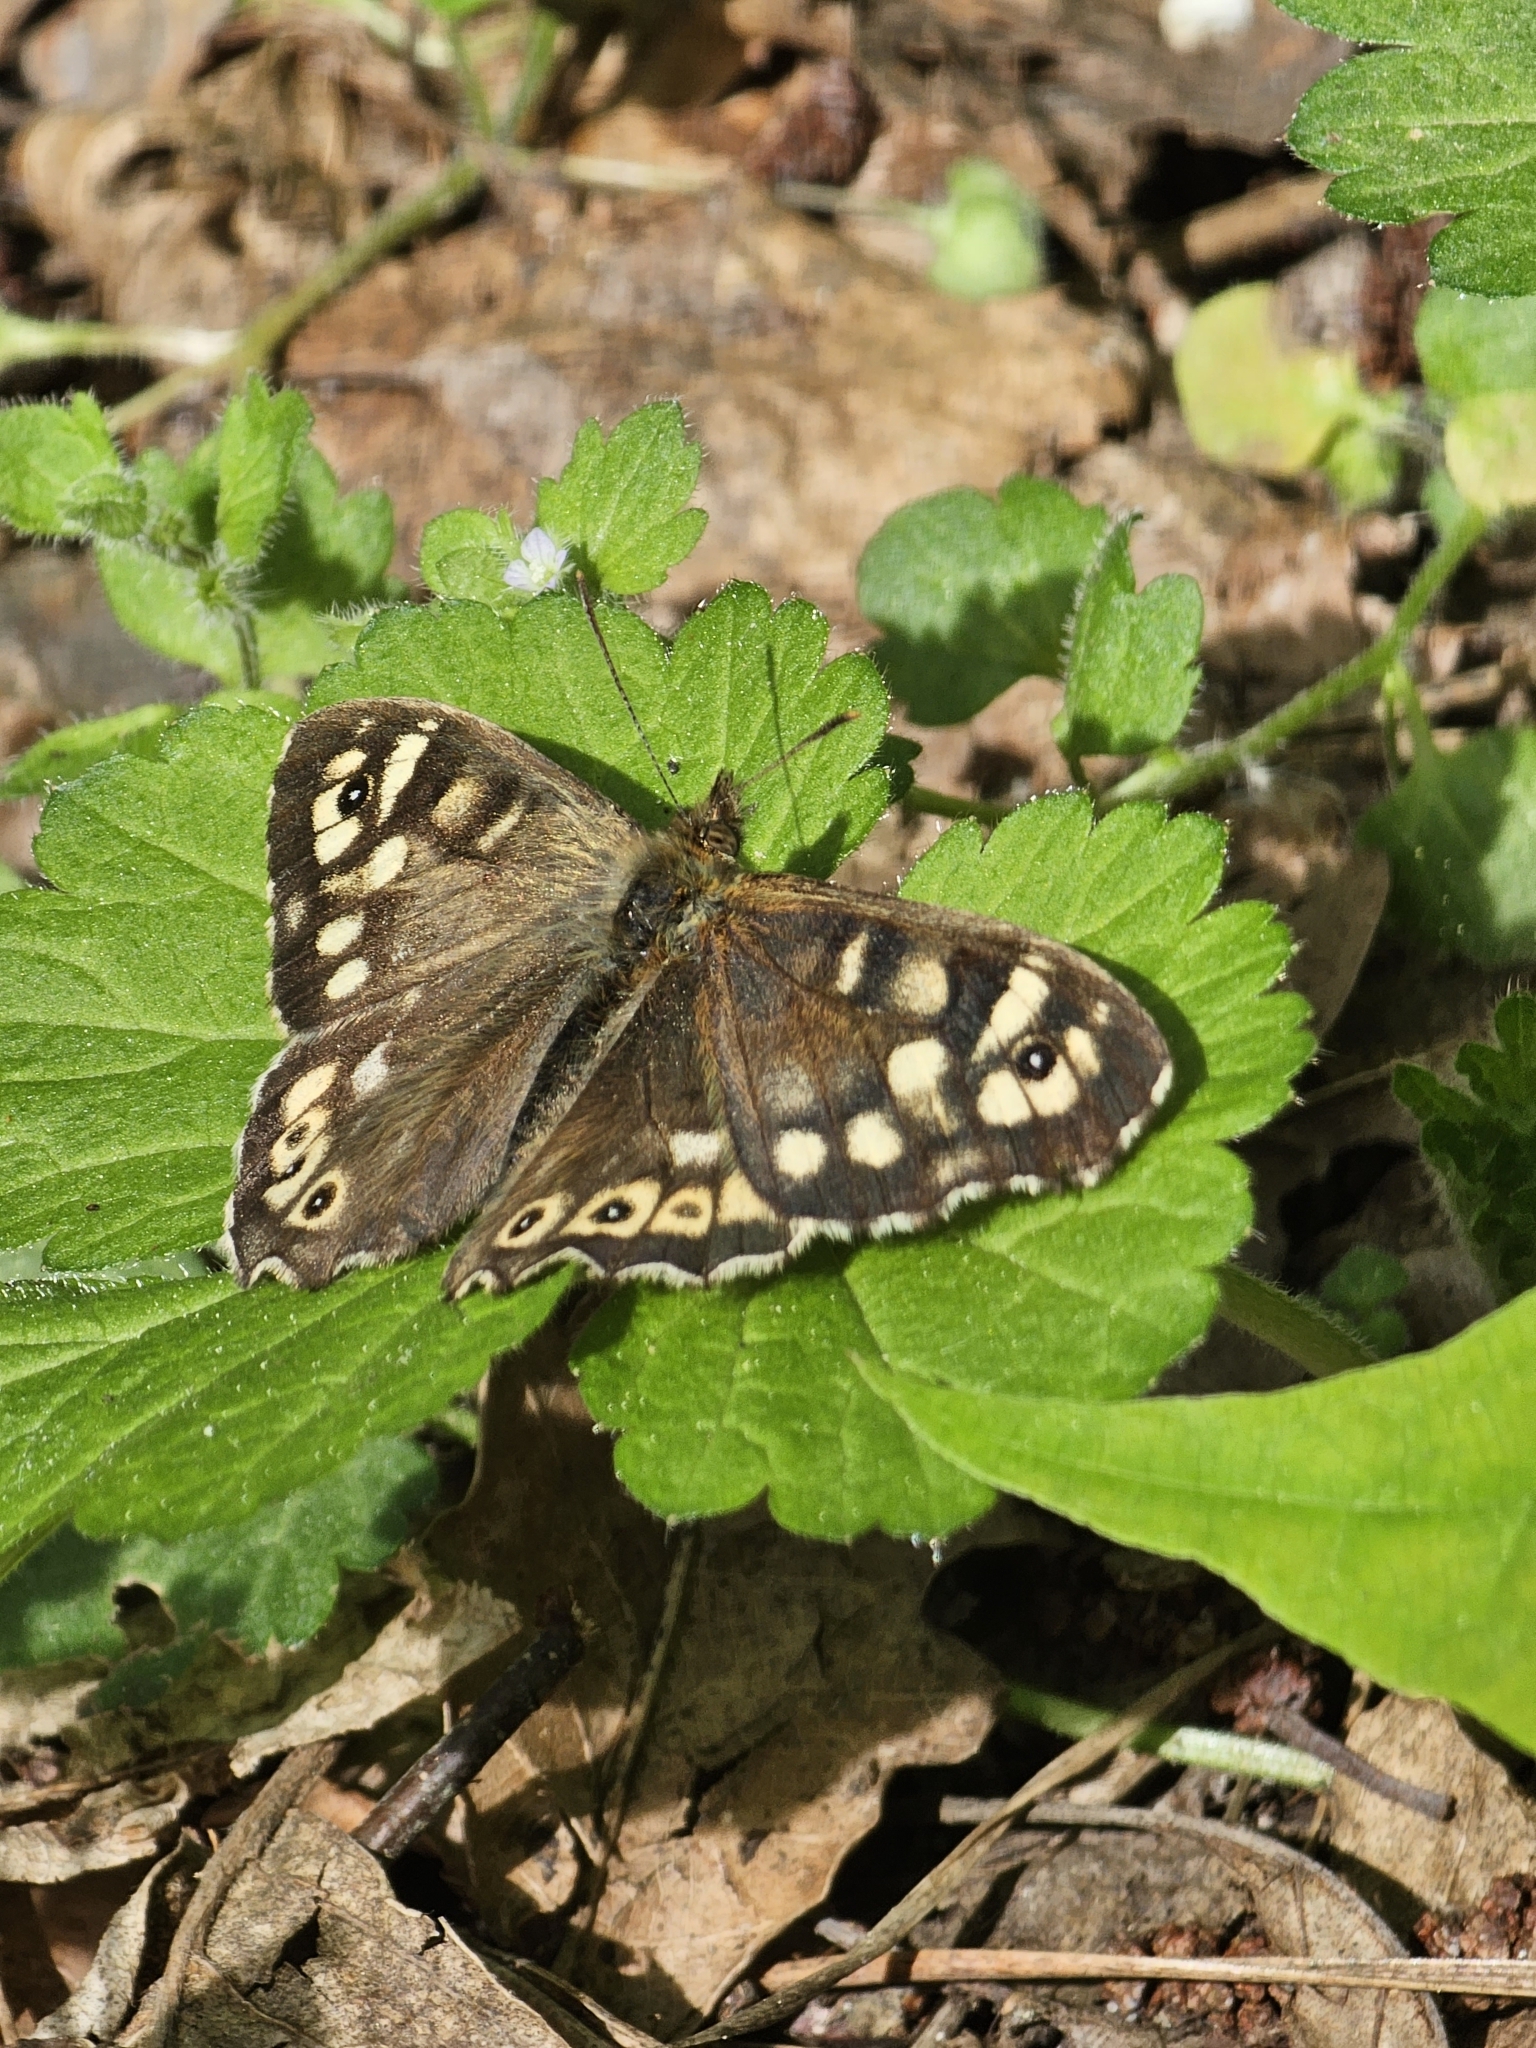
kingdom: Animalia
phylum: Arthropoda
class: Insecta
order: Lepidoptera
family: Nymphalidae
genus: Pararge
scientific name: Pararge aegeria
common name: Speckled wood
